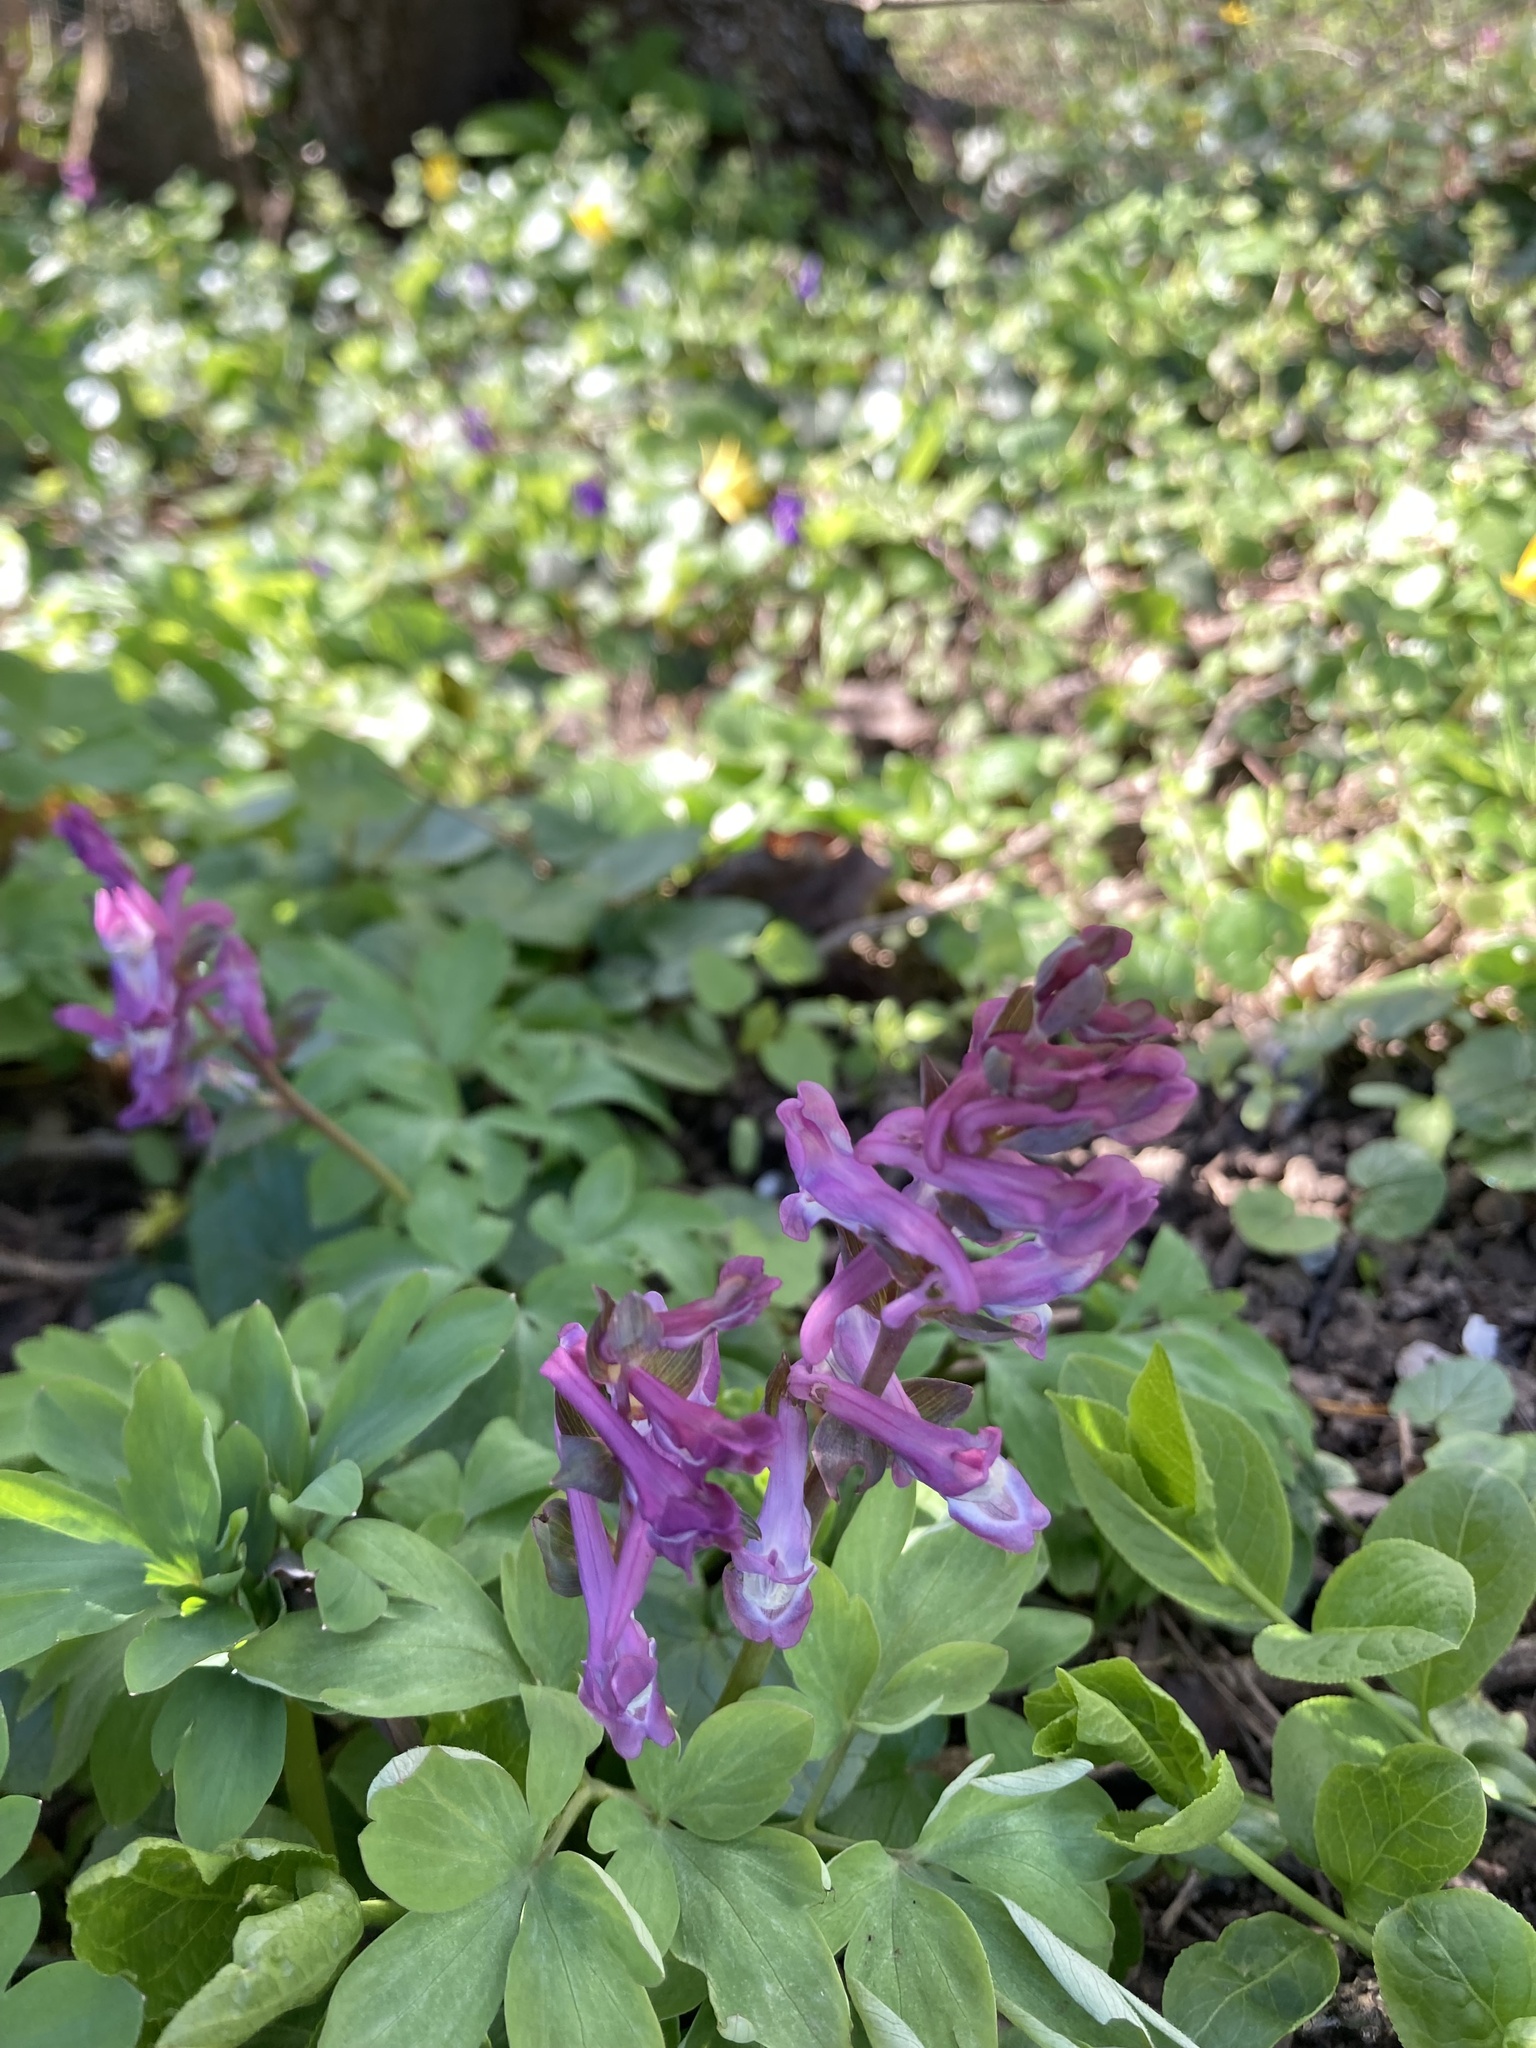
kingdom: Plantae
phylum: Tracheophyta
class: Magnoliopsida
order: Ranunculales
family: Papaveraceae
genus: Corydalis
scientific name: Corydalis cava
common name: Hollowroot
